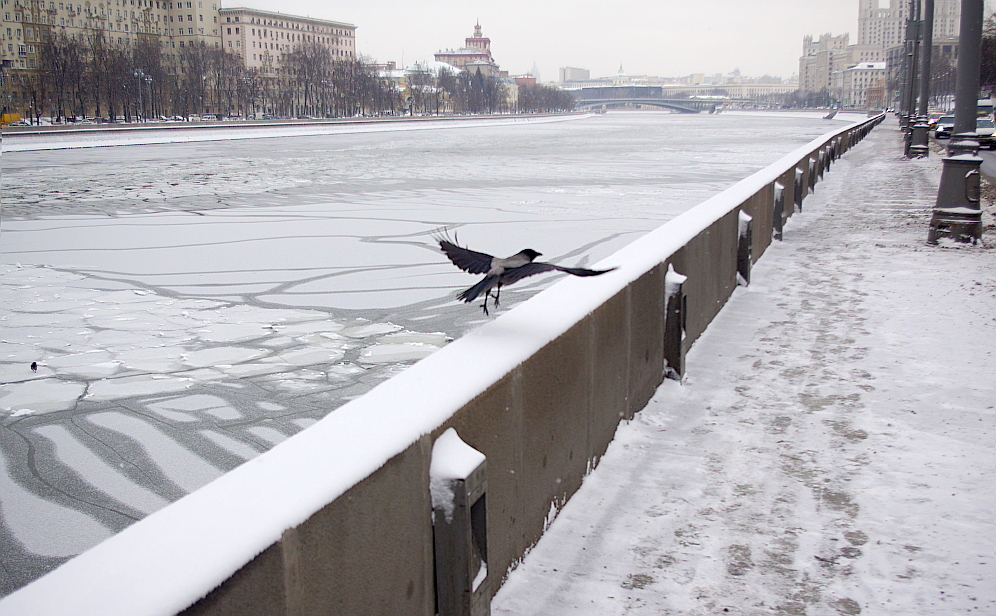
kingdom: Animalia
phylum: Chordata
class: Aves
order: Passeriformes
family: Corvidae
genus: Corvus
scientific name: Corvus cornix
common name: Hooded crow
